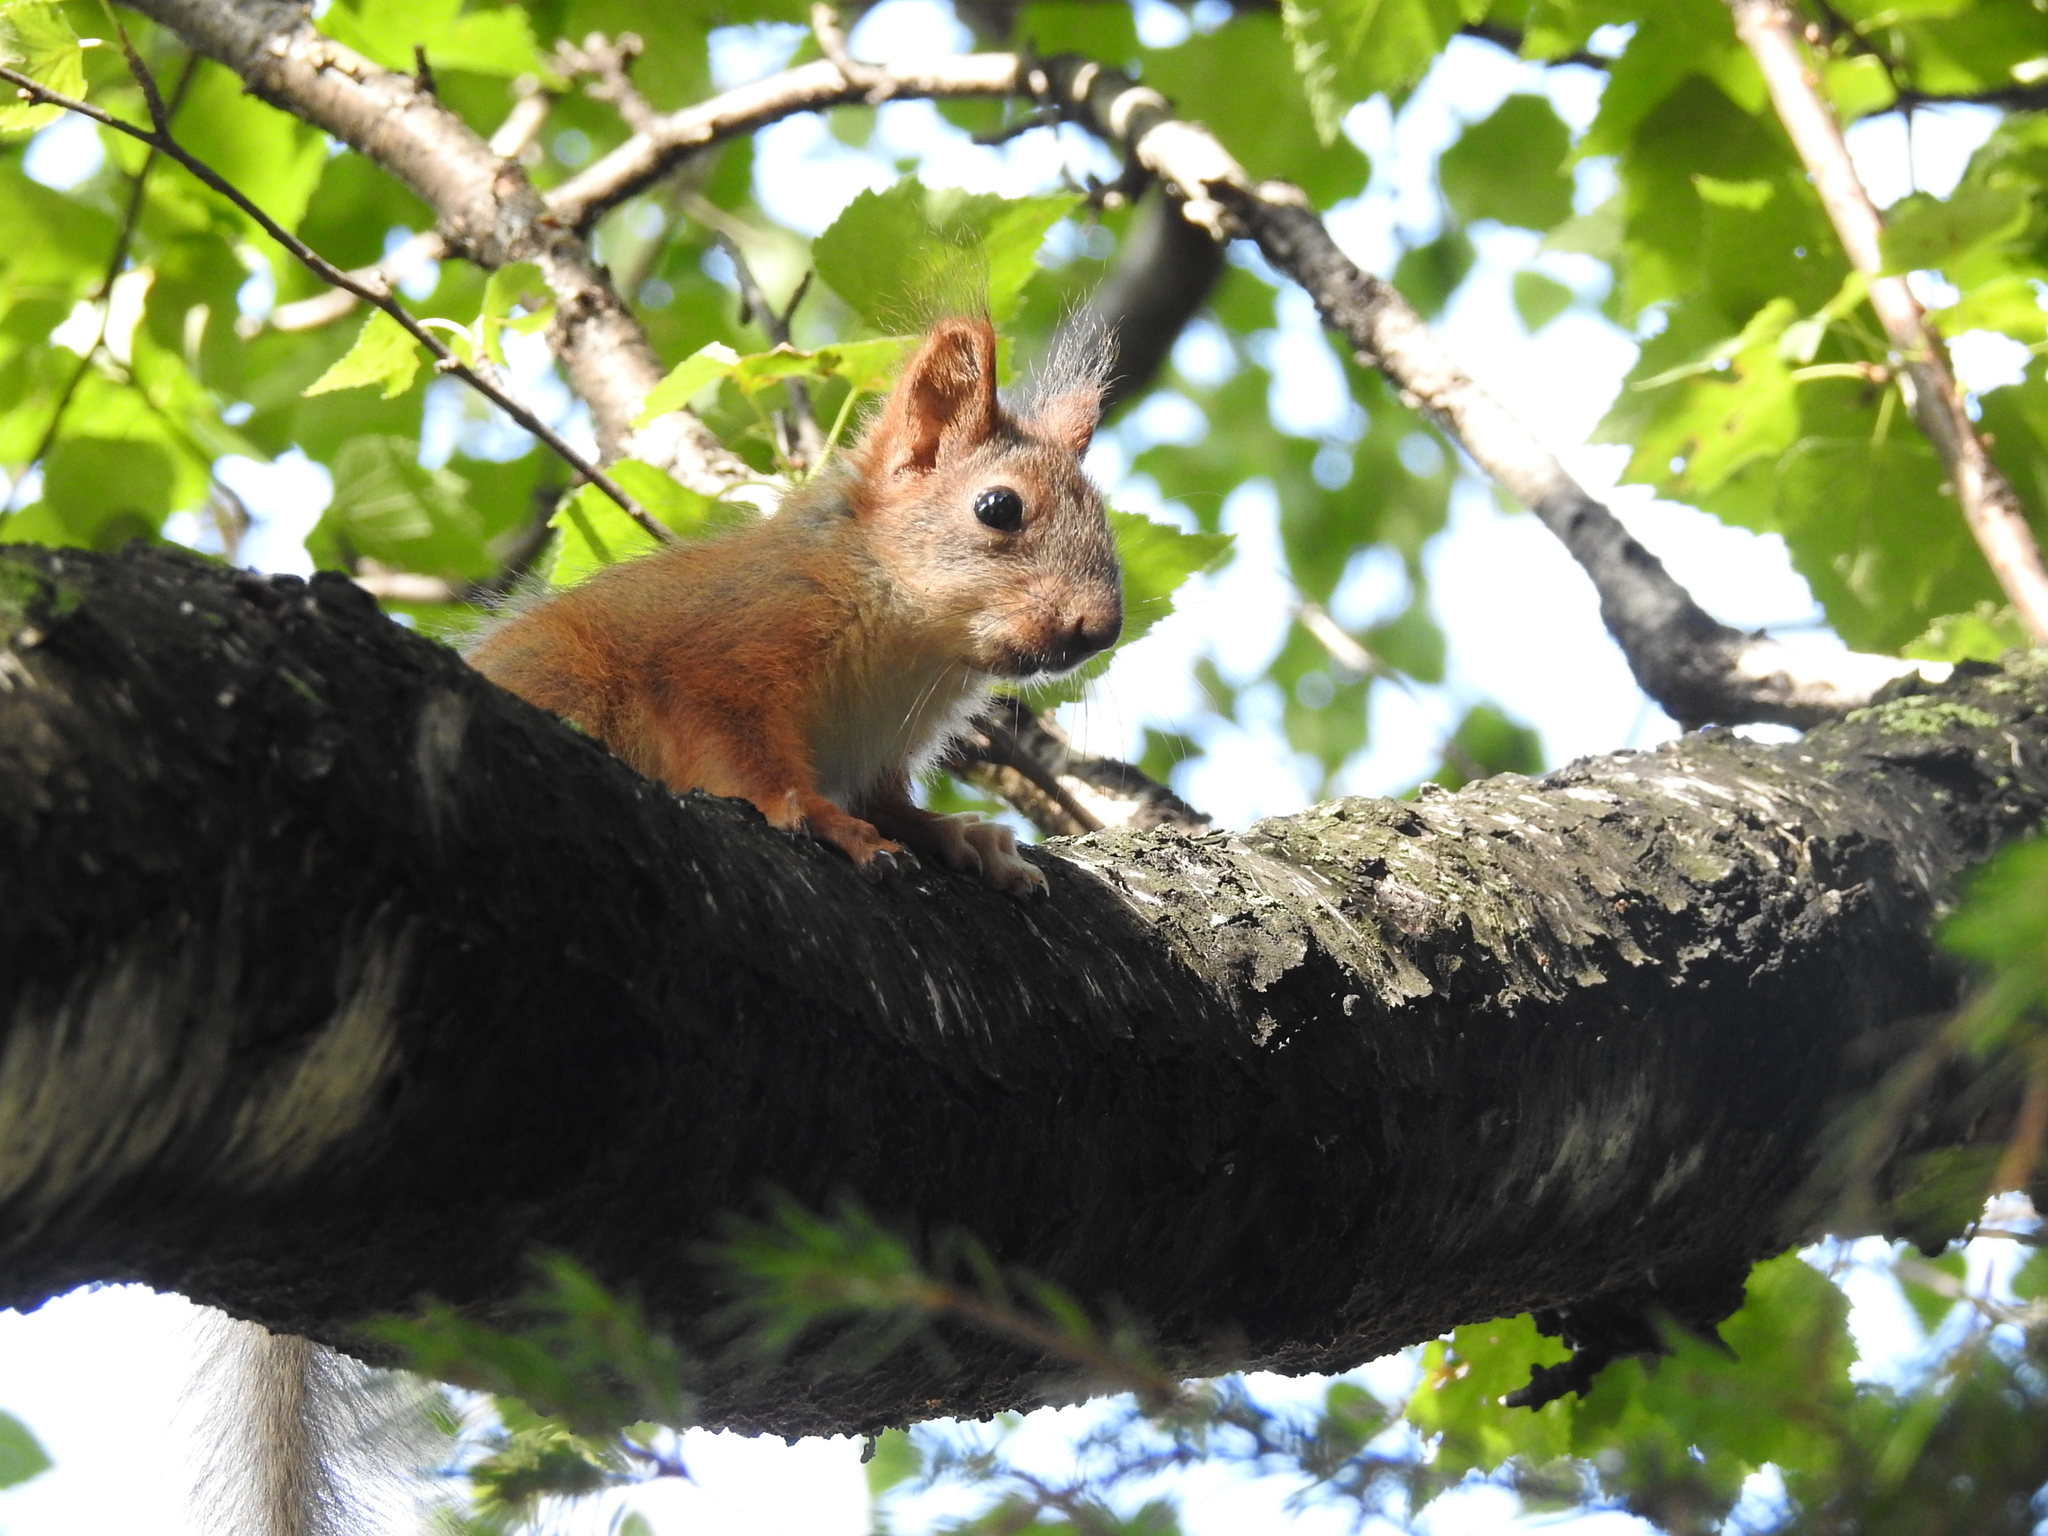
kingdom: Animalia
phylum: Chordata
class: Mammalia
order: Rodentia
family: Sciuridae
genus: Sciurus
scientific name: Sciurus vulgaris
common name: Eurasian red squirrel
